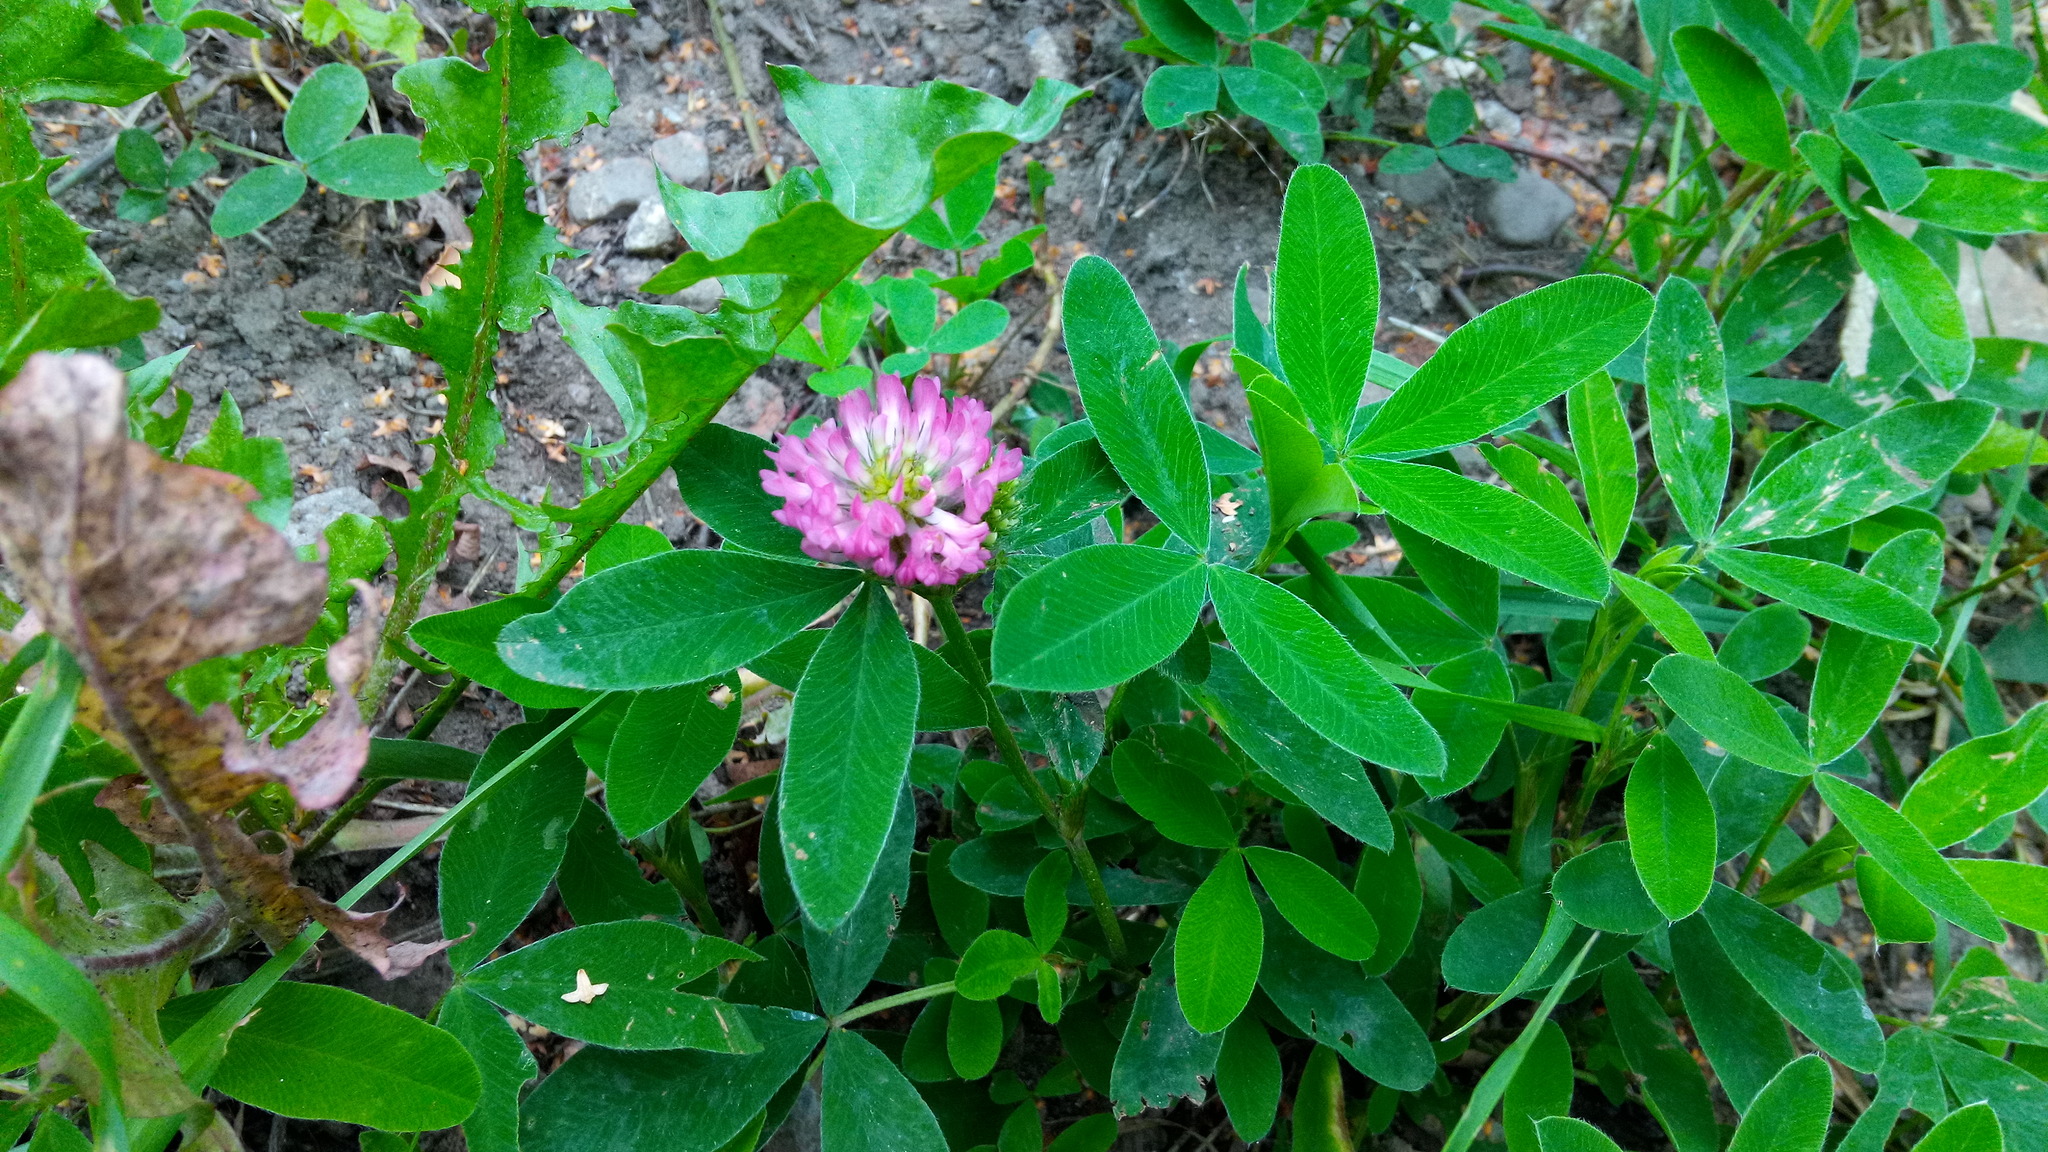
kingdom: Plantae
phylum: Tracheophyta
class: Magnoliopsida
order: Fabales
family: Fabaceae
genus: Trifolium
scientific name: Trifolium medium
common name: Zigzag clover
